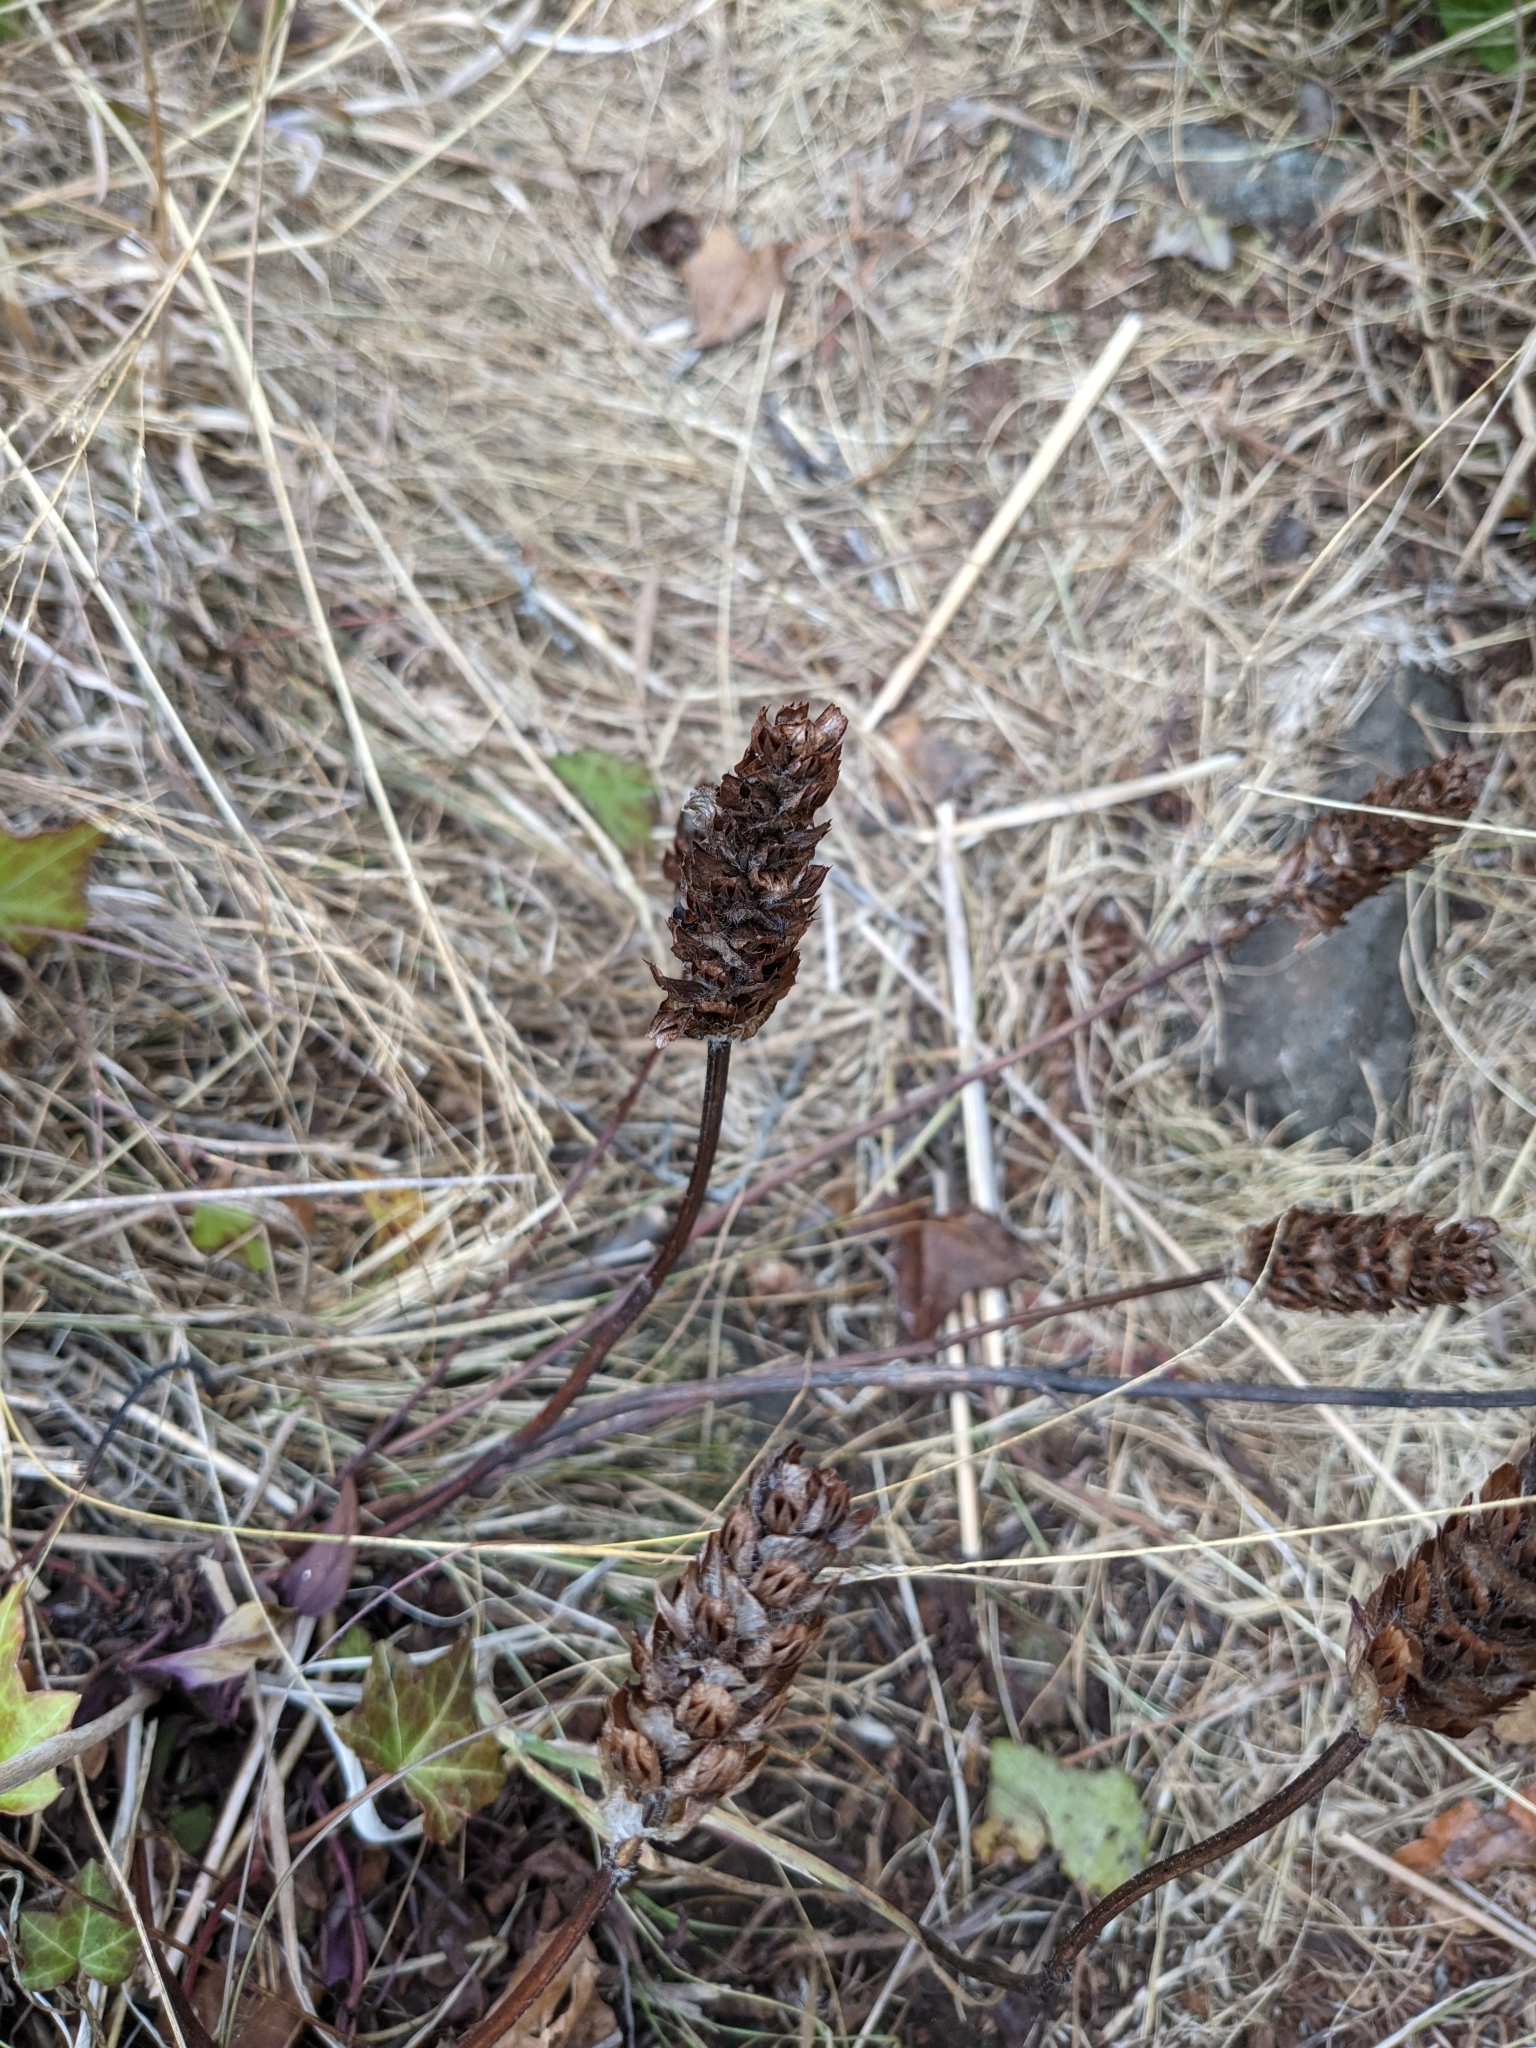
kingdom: Plantae
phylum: Tracheophyta
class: Magnoliopsida
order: Lamiales
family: Lamiaceae
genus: Prunella
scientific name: Prunella vulgaris
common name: Heal-all
